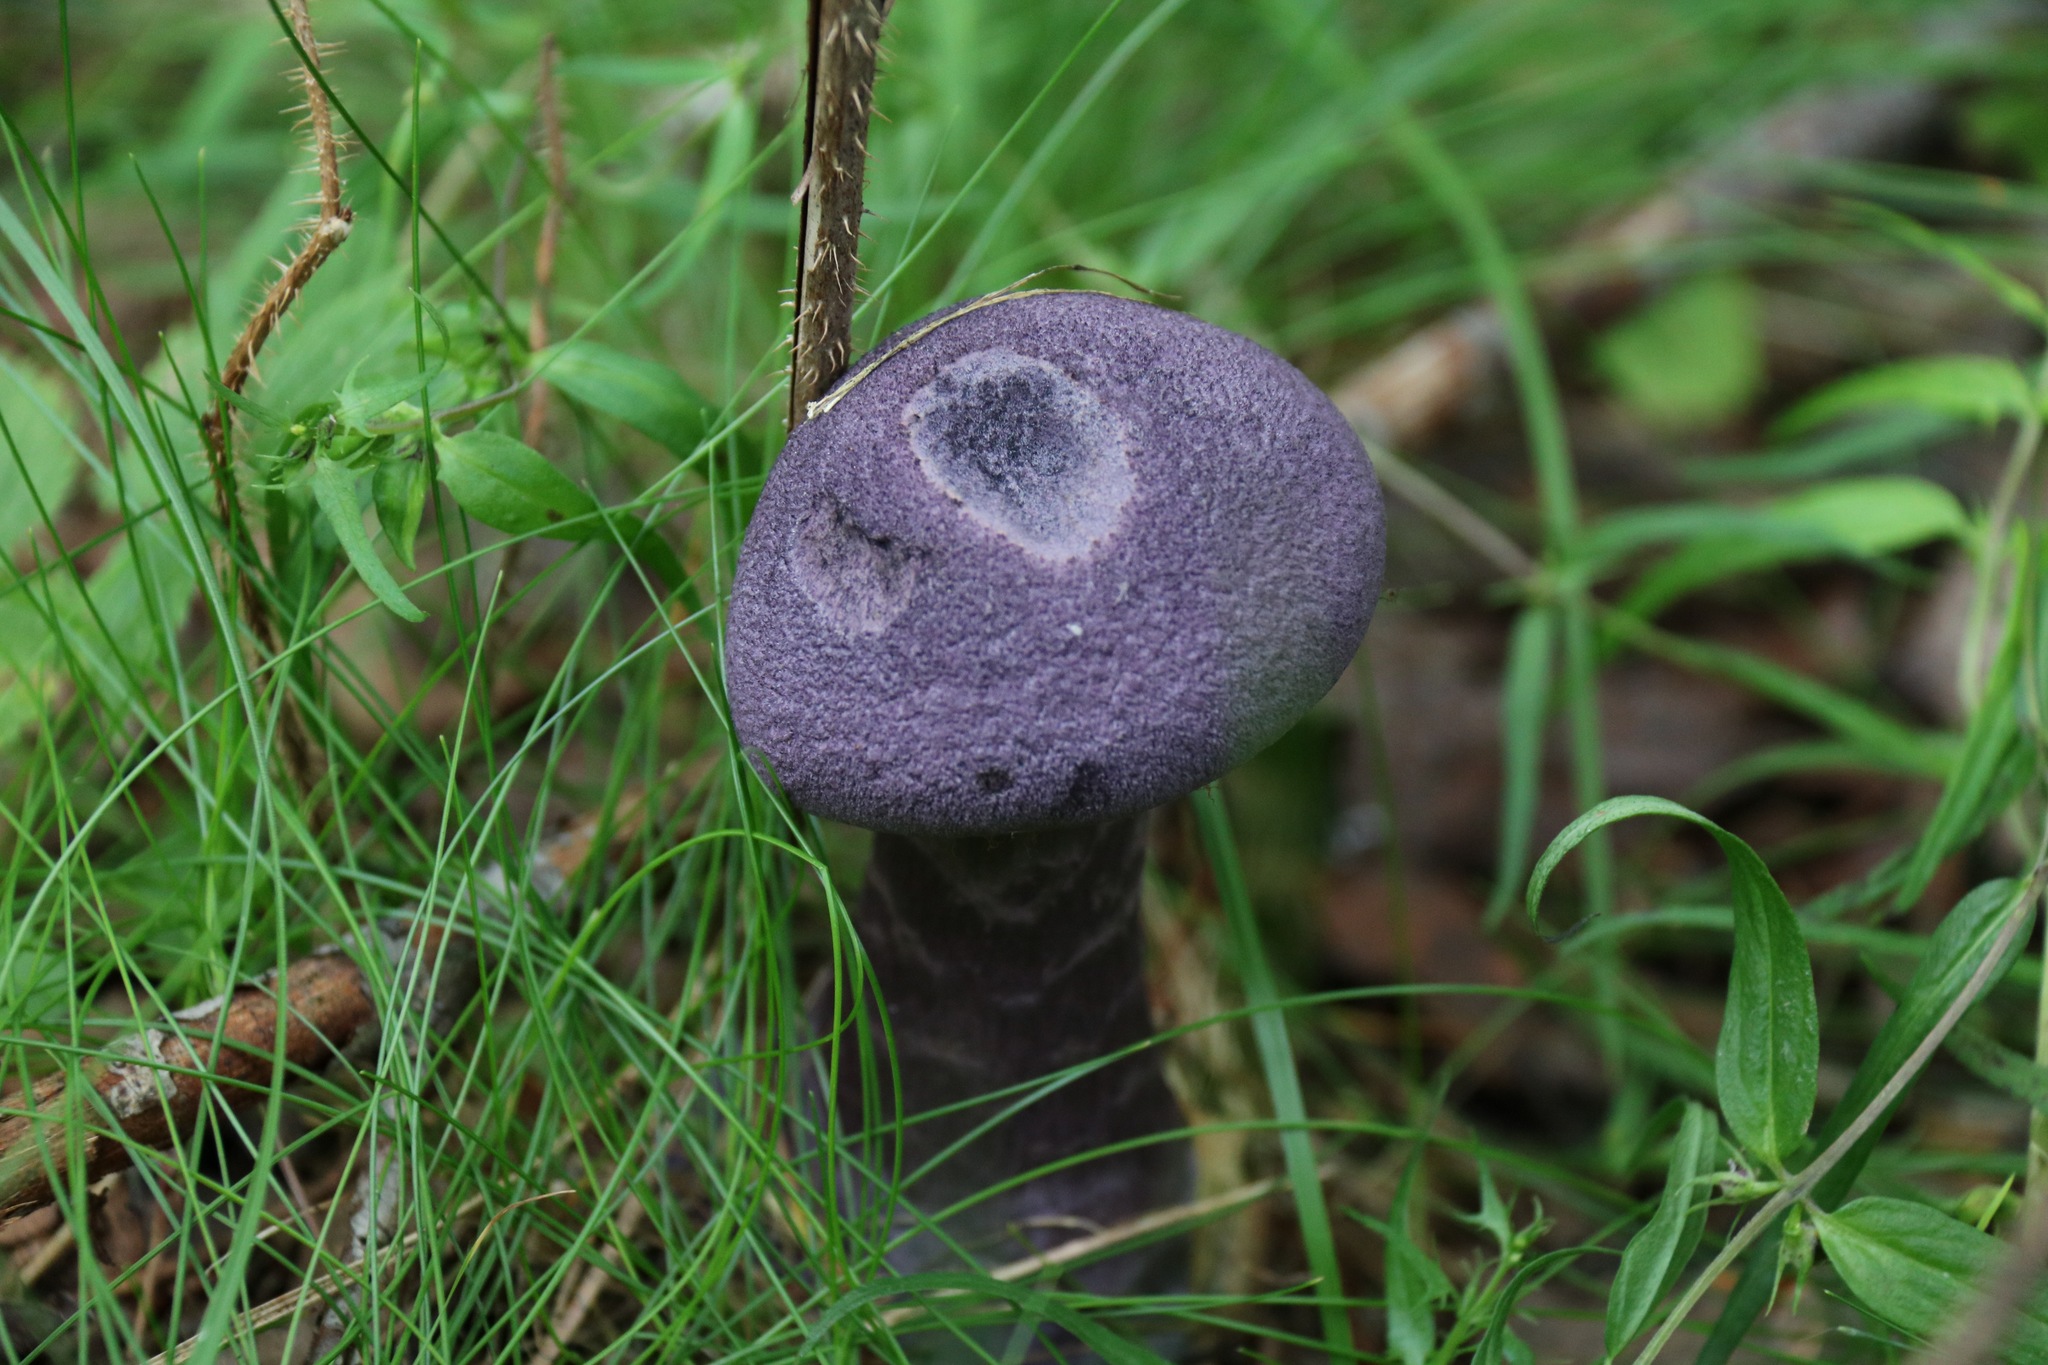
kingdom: Fungi
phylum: Basidiomycota
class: Agaricomycetes
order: Agaricales
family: Cortinariaceae
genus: Cortinarius
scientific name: Cortinarius violaceus
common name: Violet webcap
